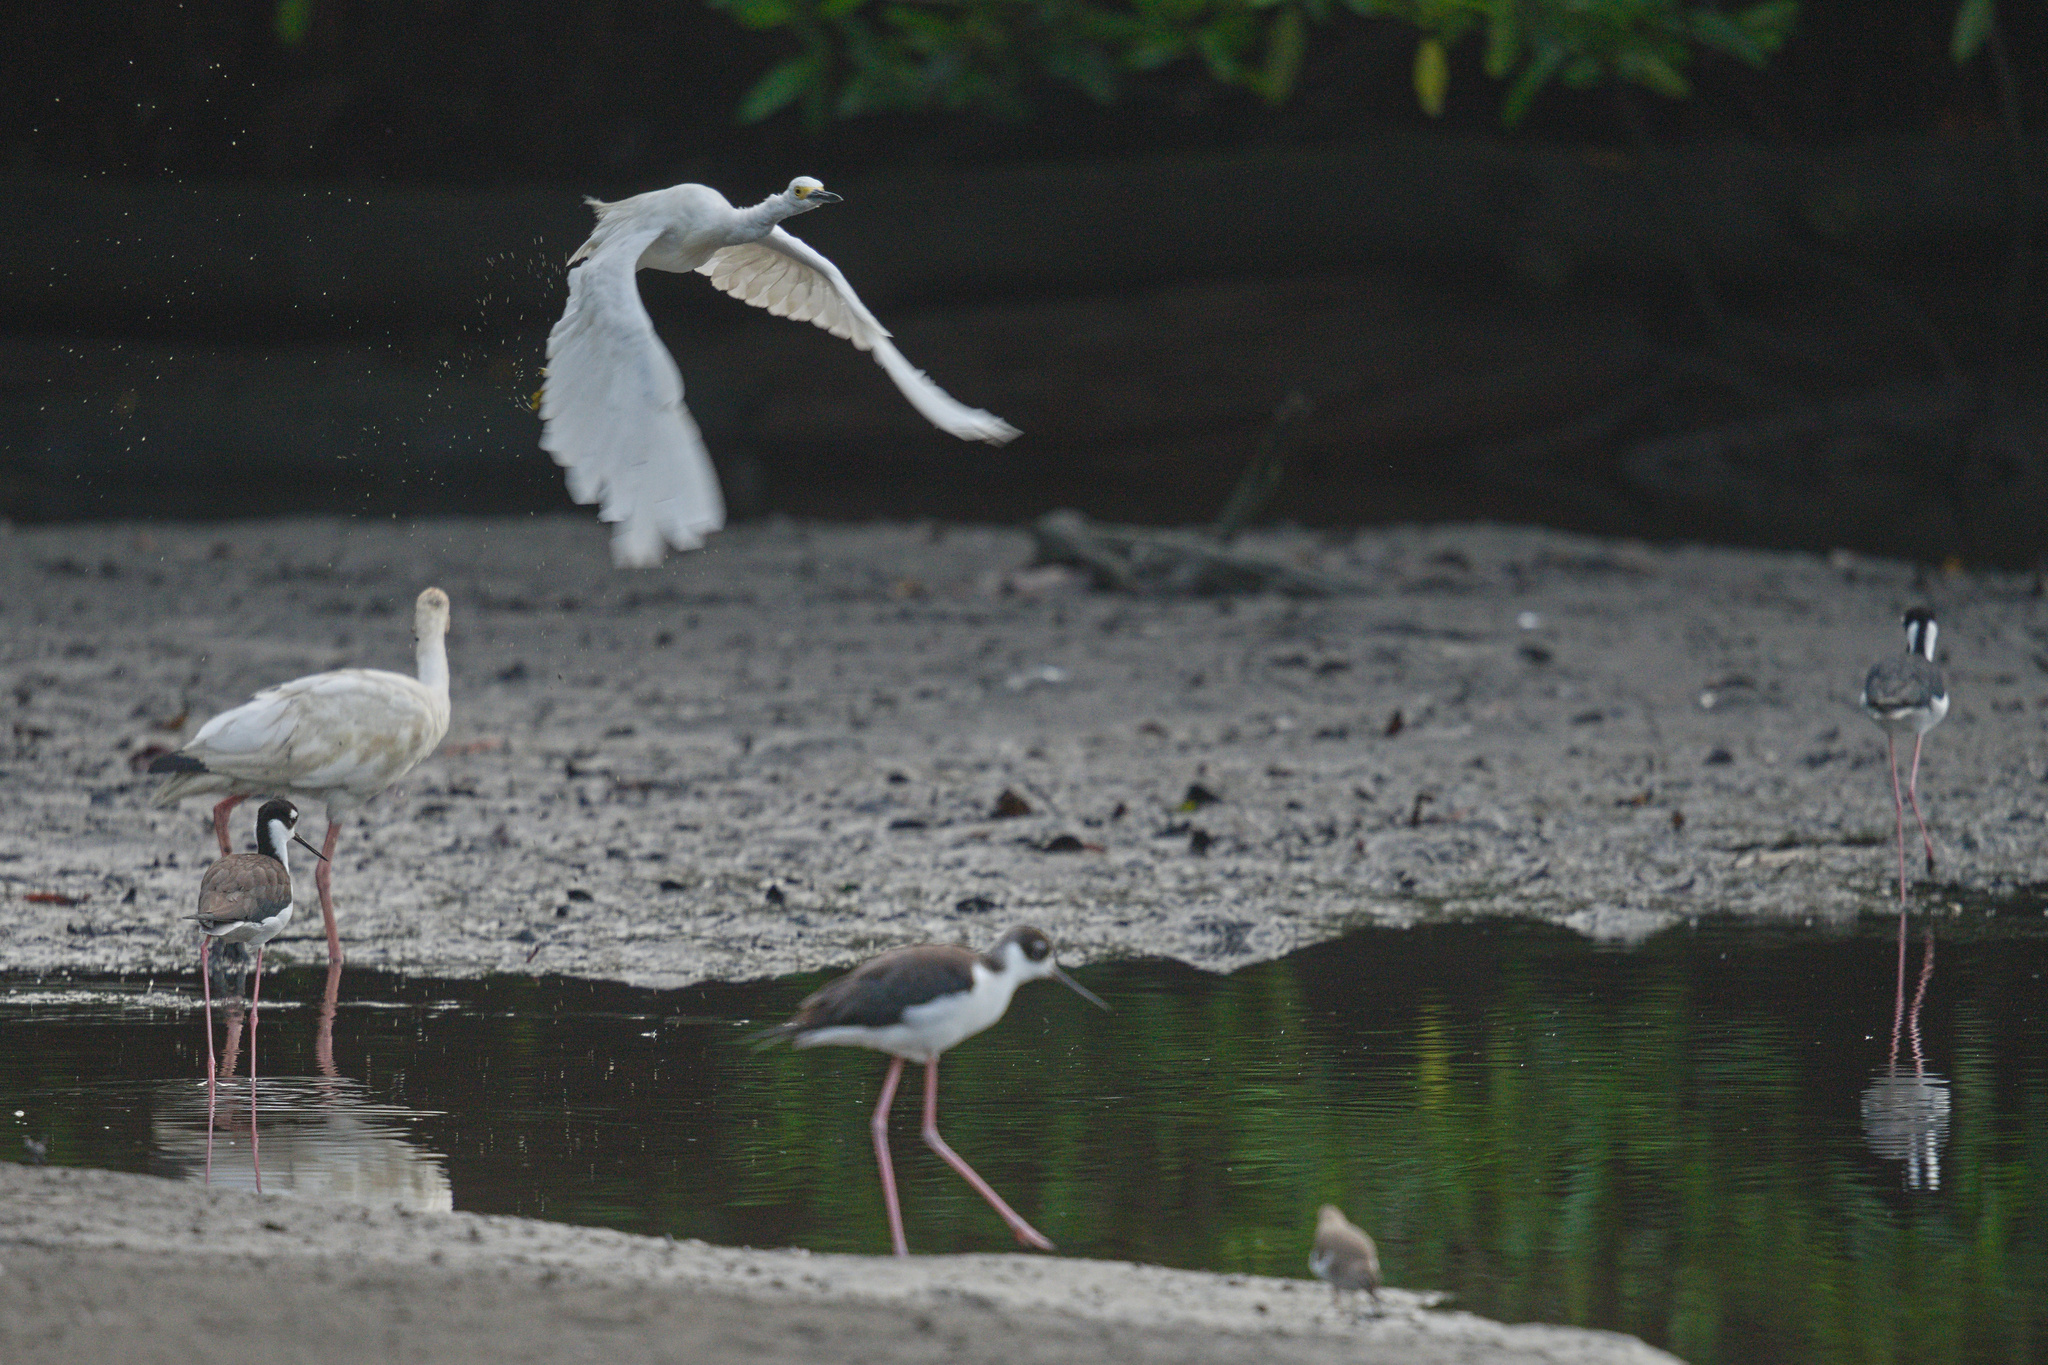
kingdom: Animalia
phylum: Chordata
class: Aves
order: Charadriiformes
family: Recurvirostridae
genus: Himantopus
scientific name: Himantopus mexicanus
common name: Black-necked stilt
